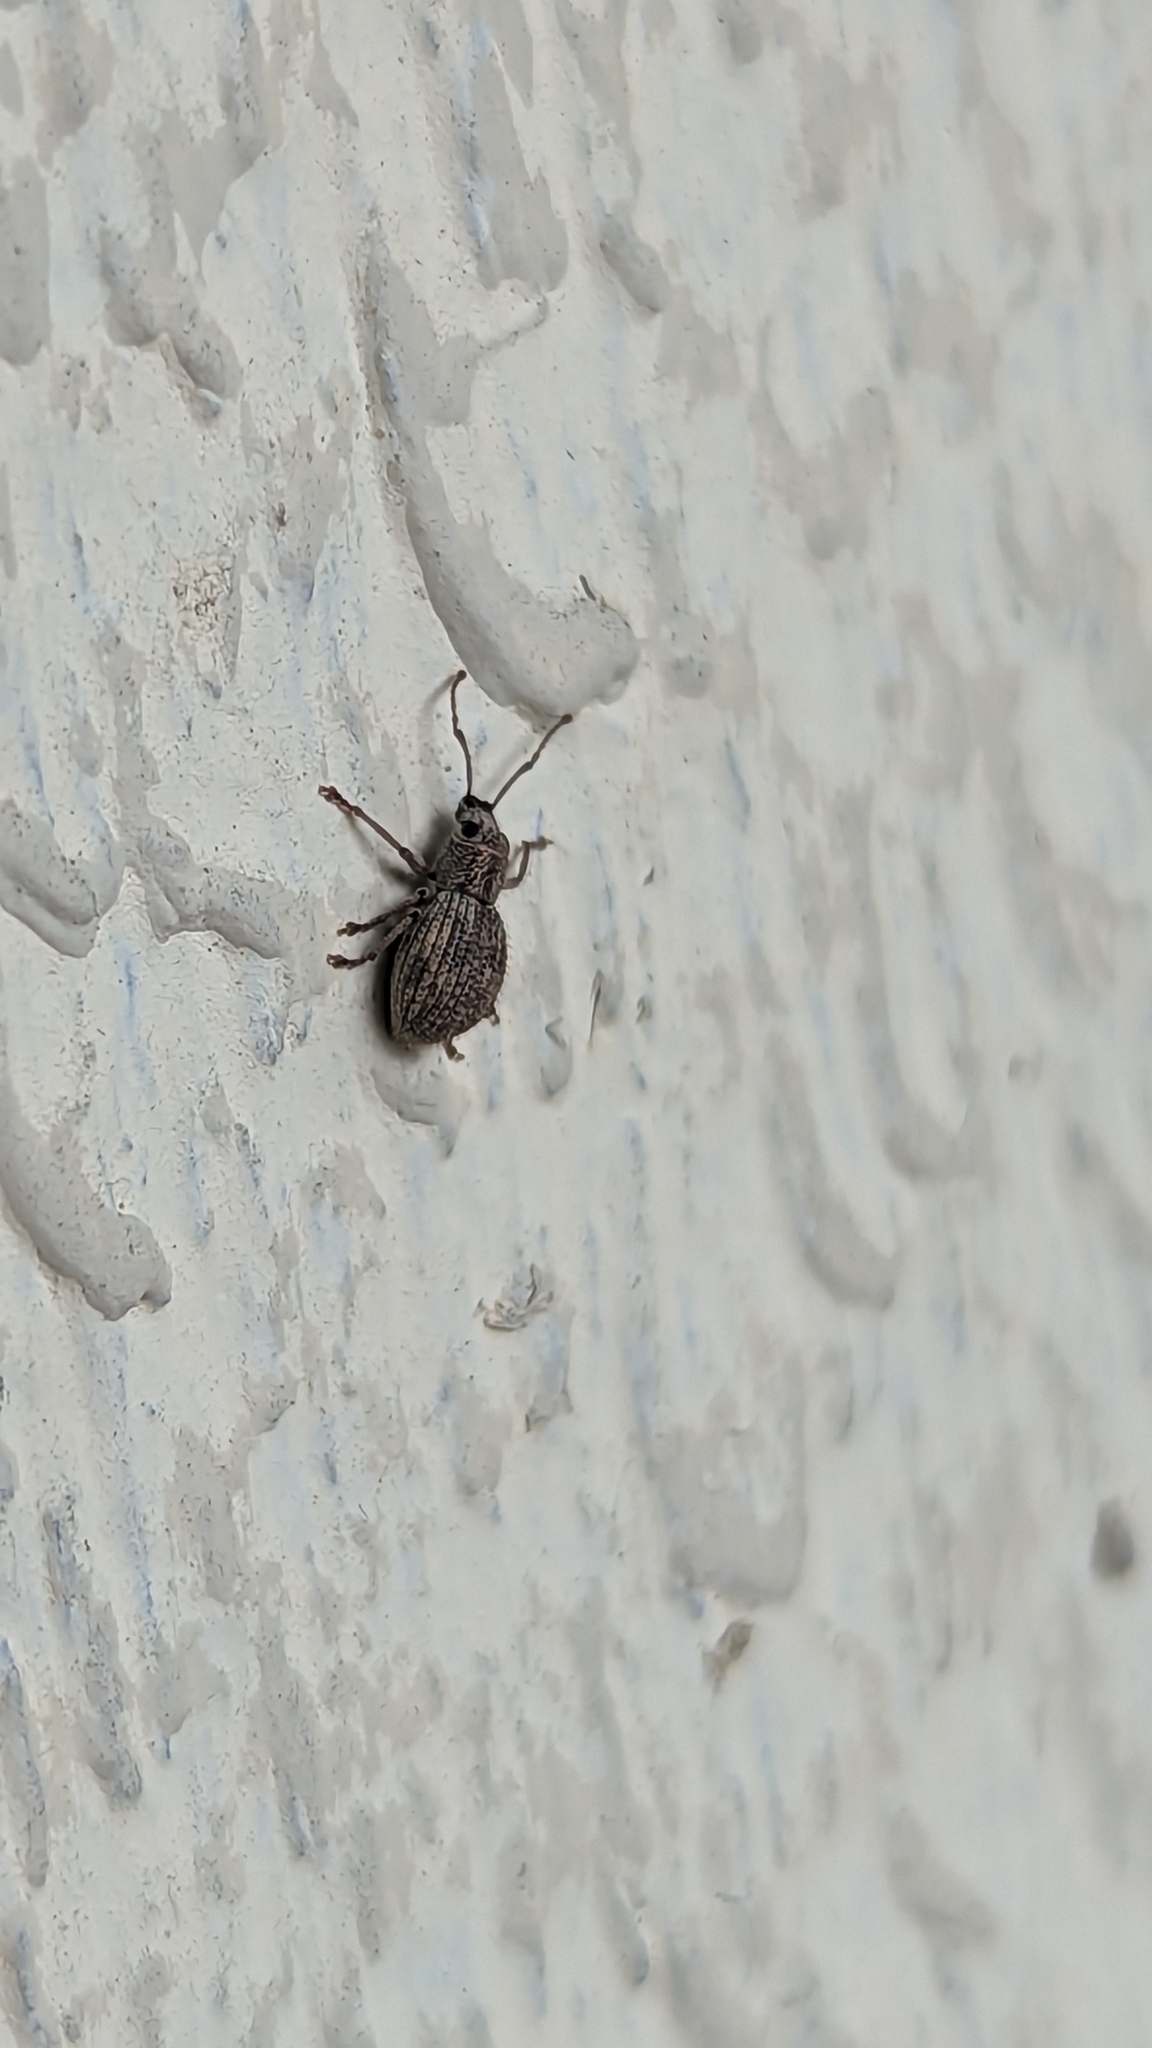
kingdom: Animalia
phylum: Arthropoda
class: Insecta
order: Coleoptera
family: Curculionidae
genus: Calomycterus
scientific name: Calomycterus setarius
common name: Weevil
